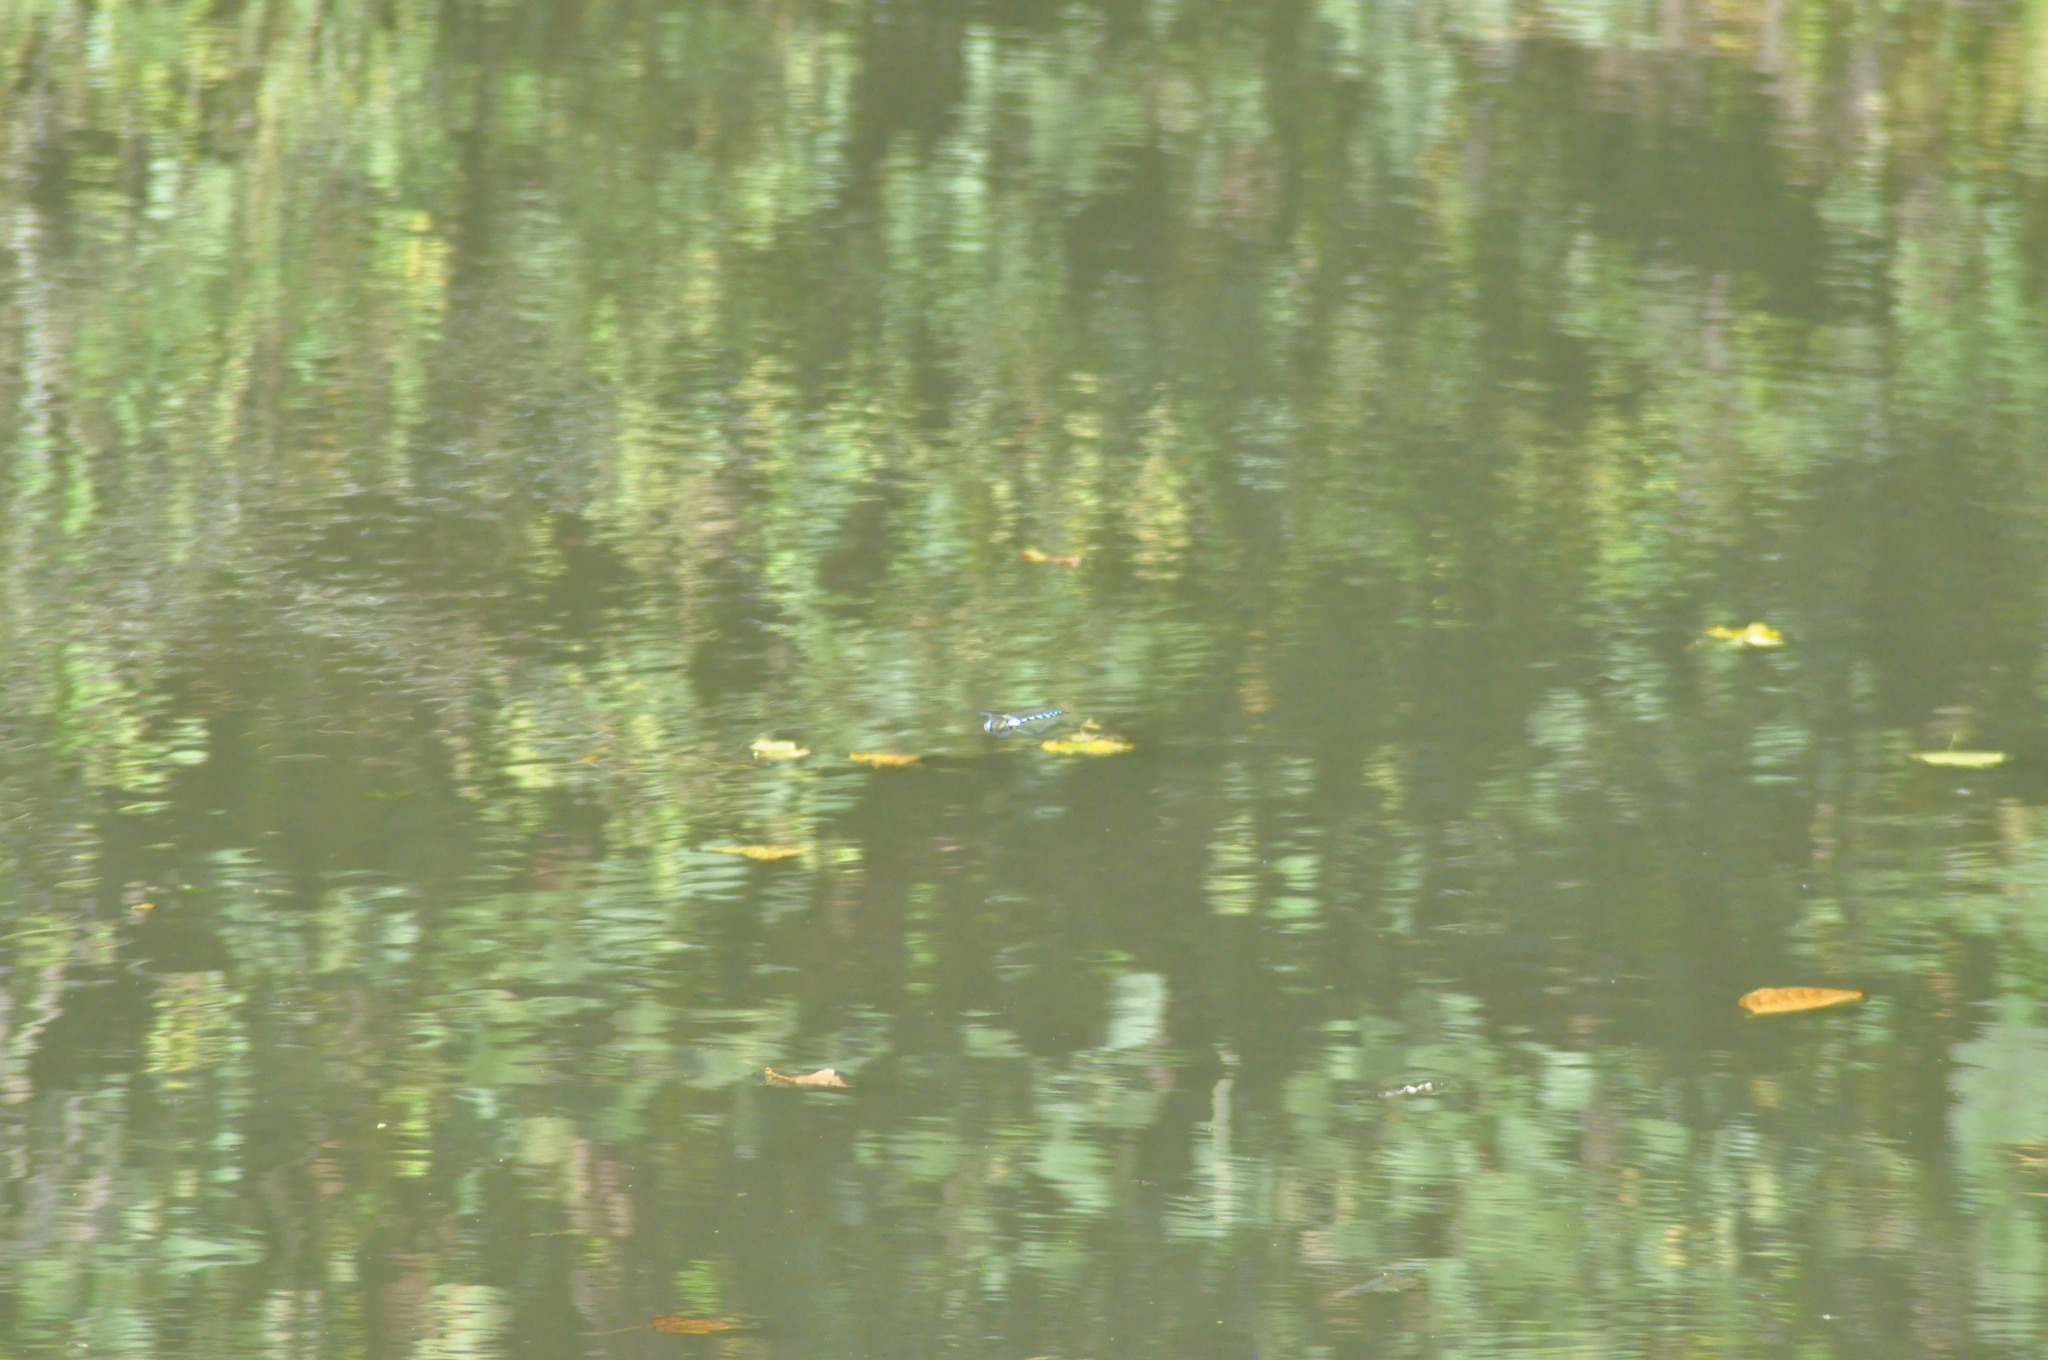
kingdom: Animalia
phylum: Arthropoda
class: Insecta
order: Odonata
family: Aeshnidae
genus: Aeshna
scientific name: Aeshna mixta
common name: Migrant hawker
